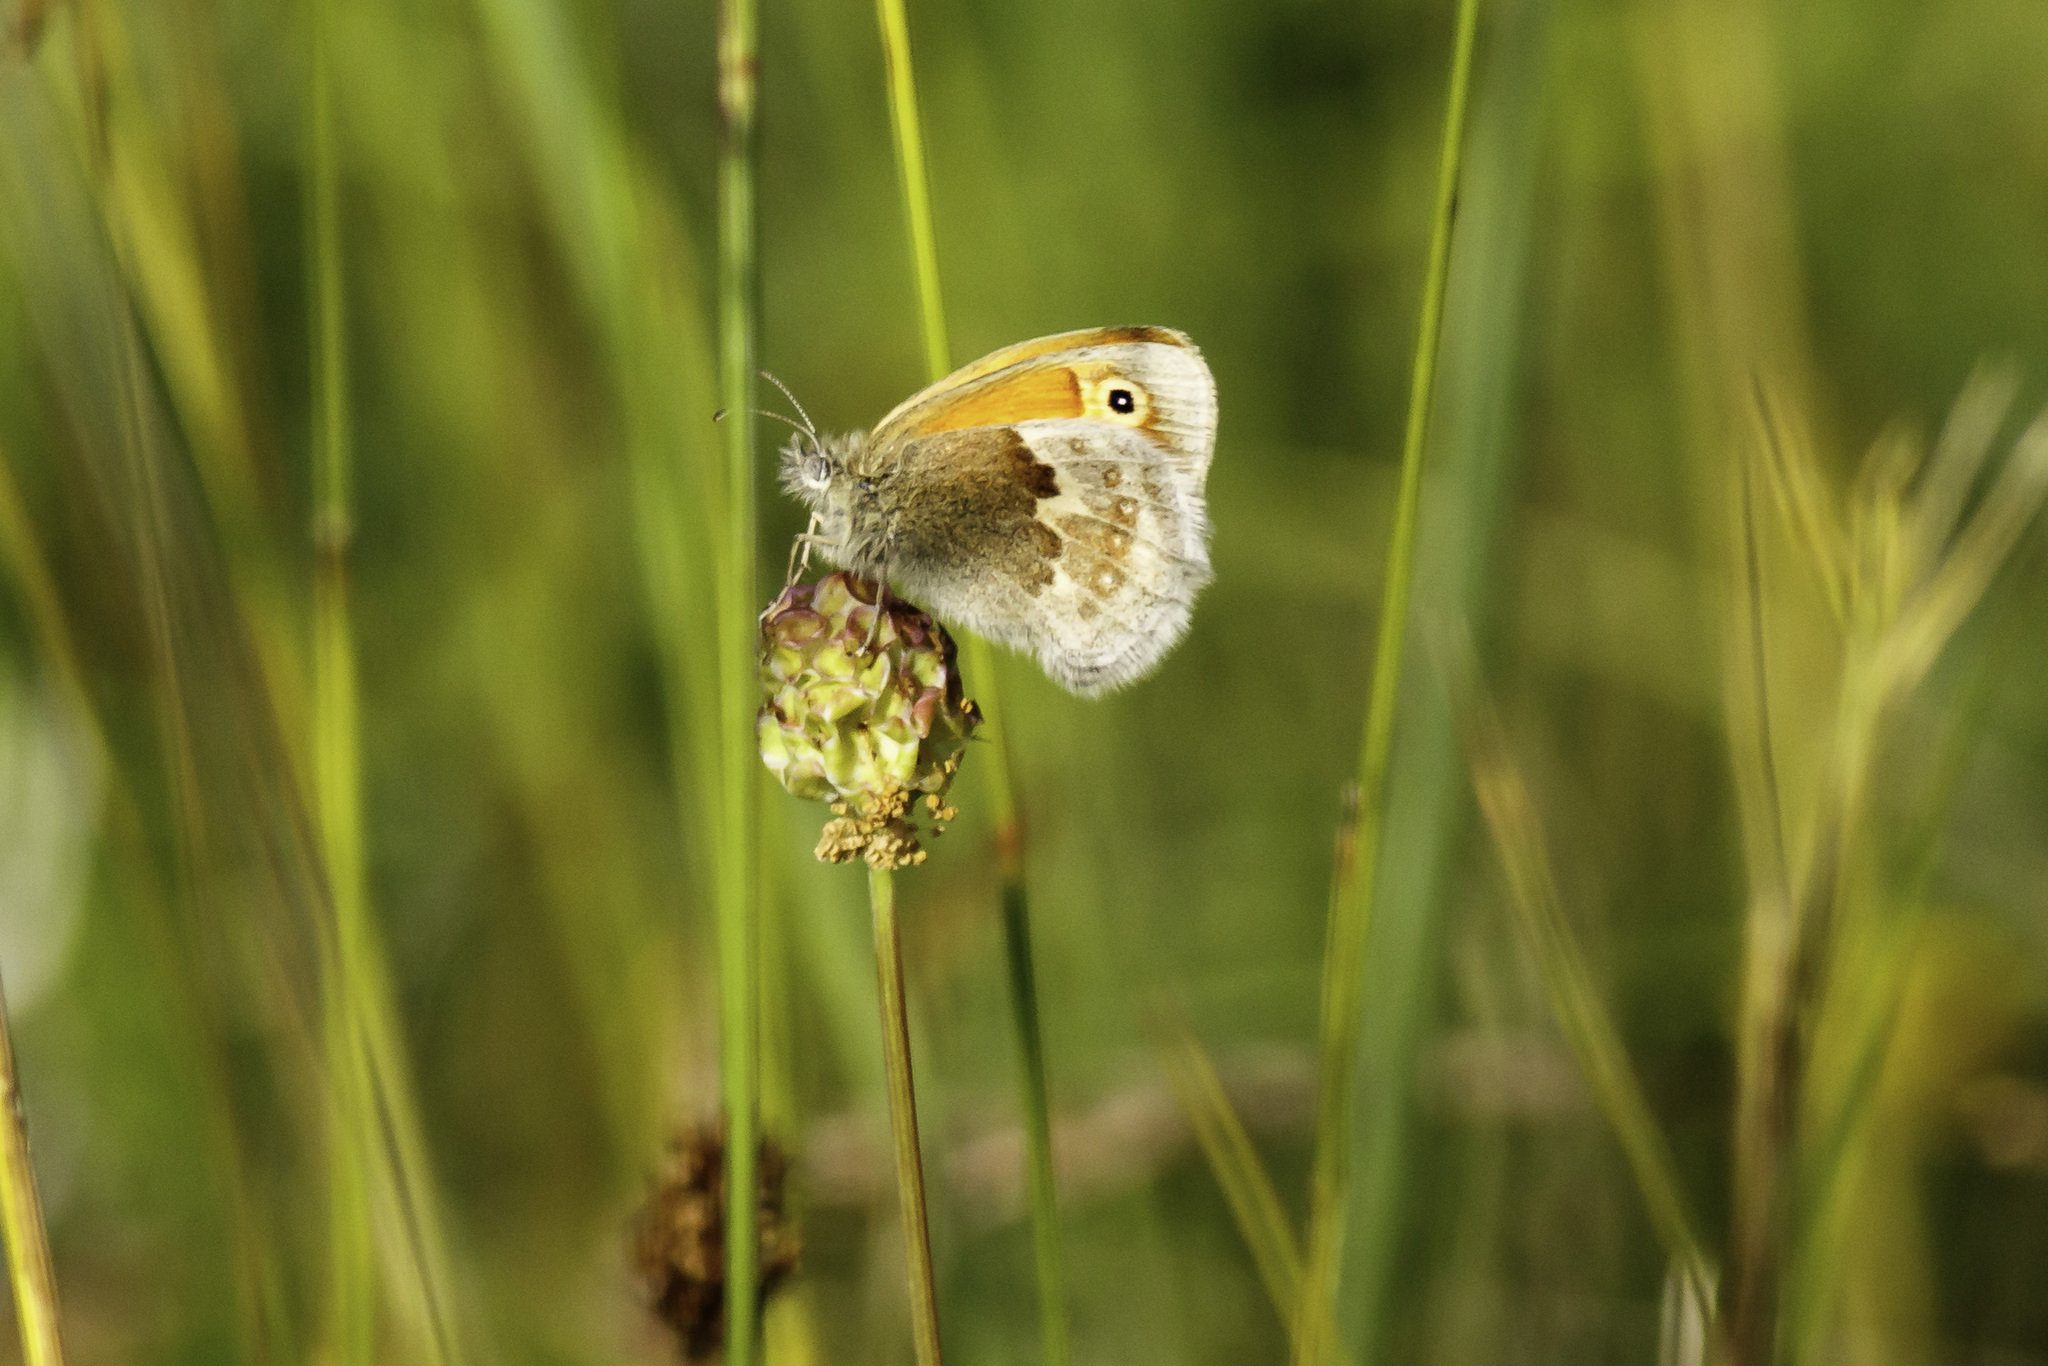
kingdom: Animalia
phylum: Arthropoda
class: Insecta
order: Lepidoptera
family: Nymphalidae
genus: Coenonympha
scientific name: Coenonympha pamphilus
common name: Small heath
